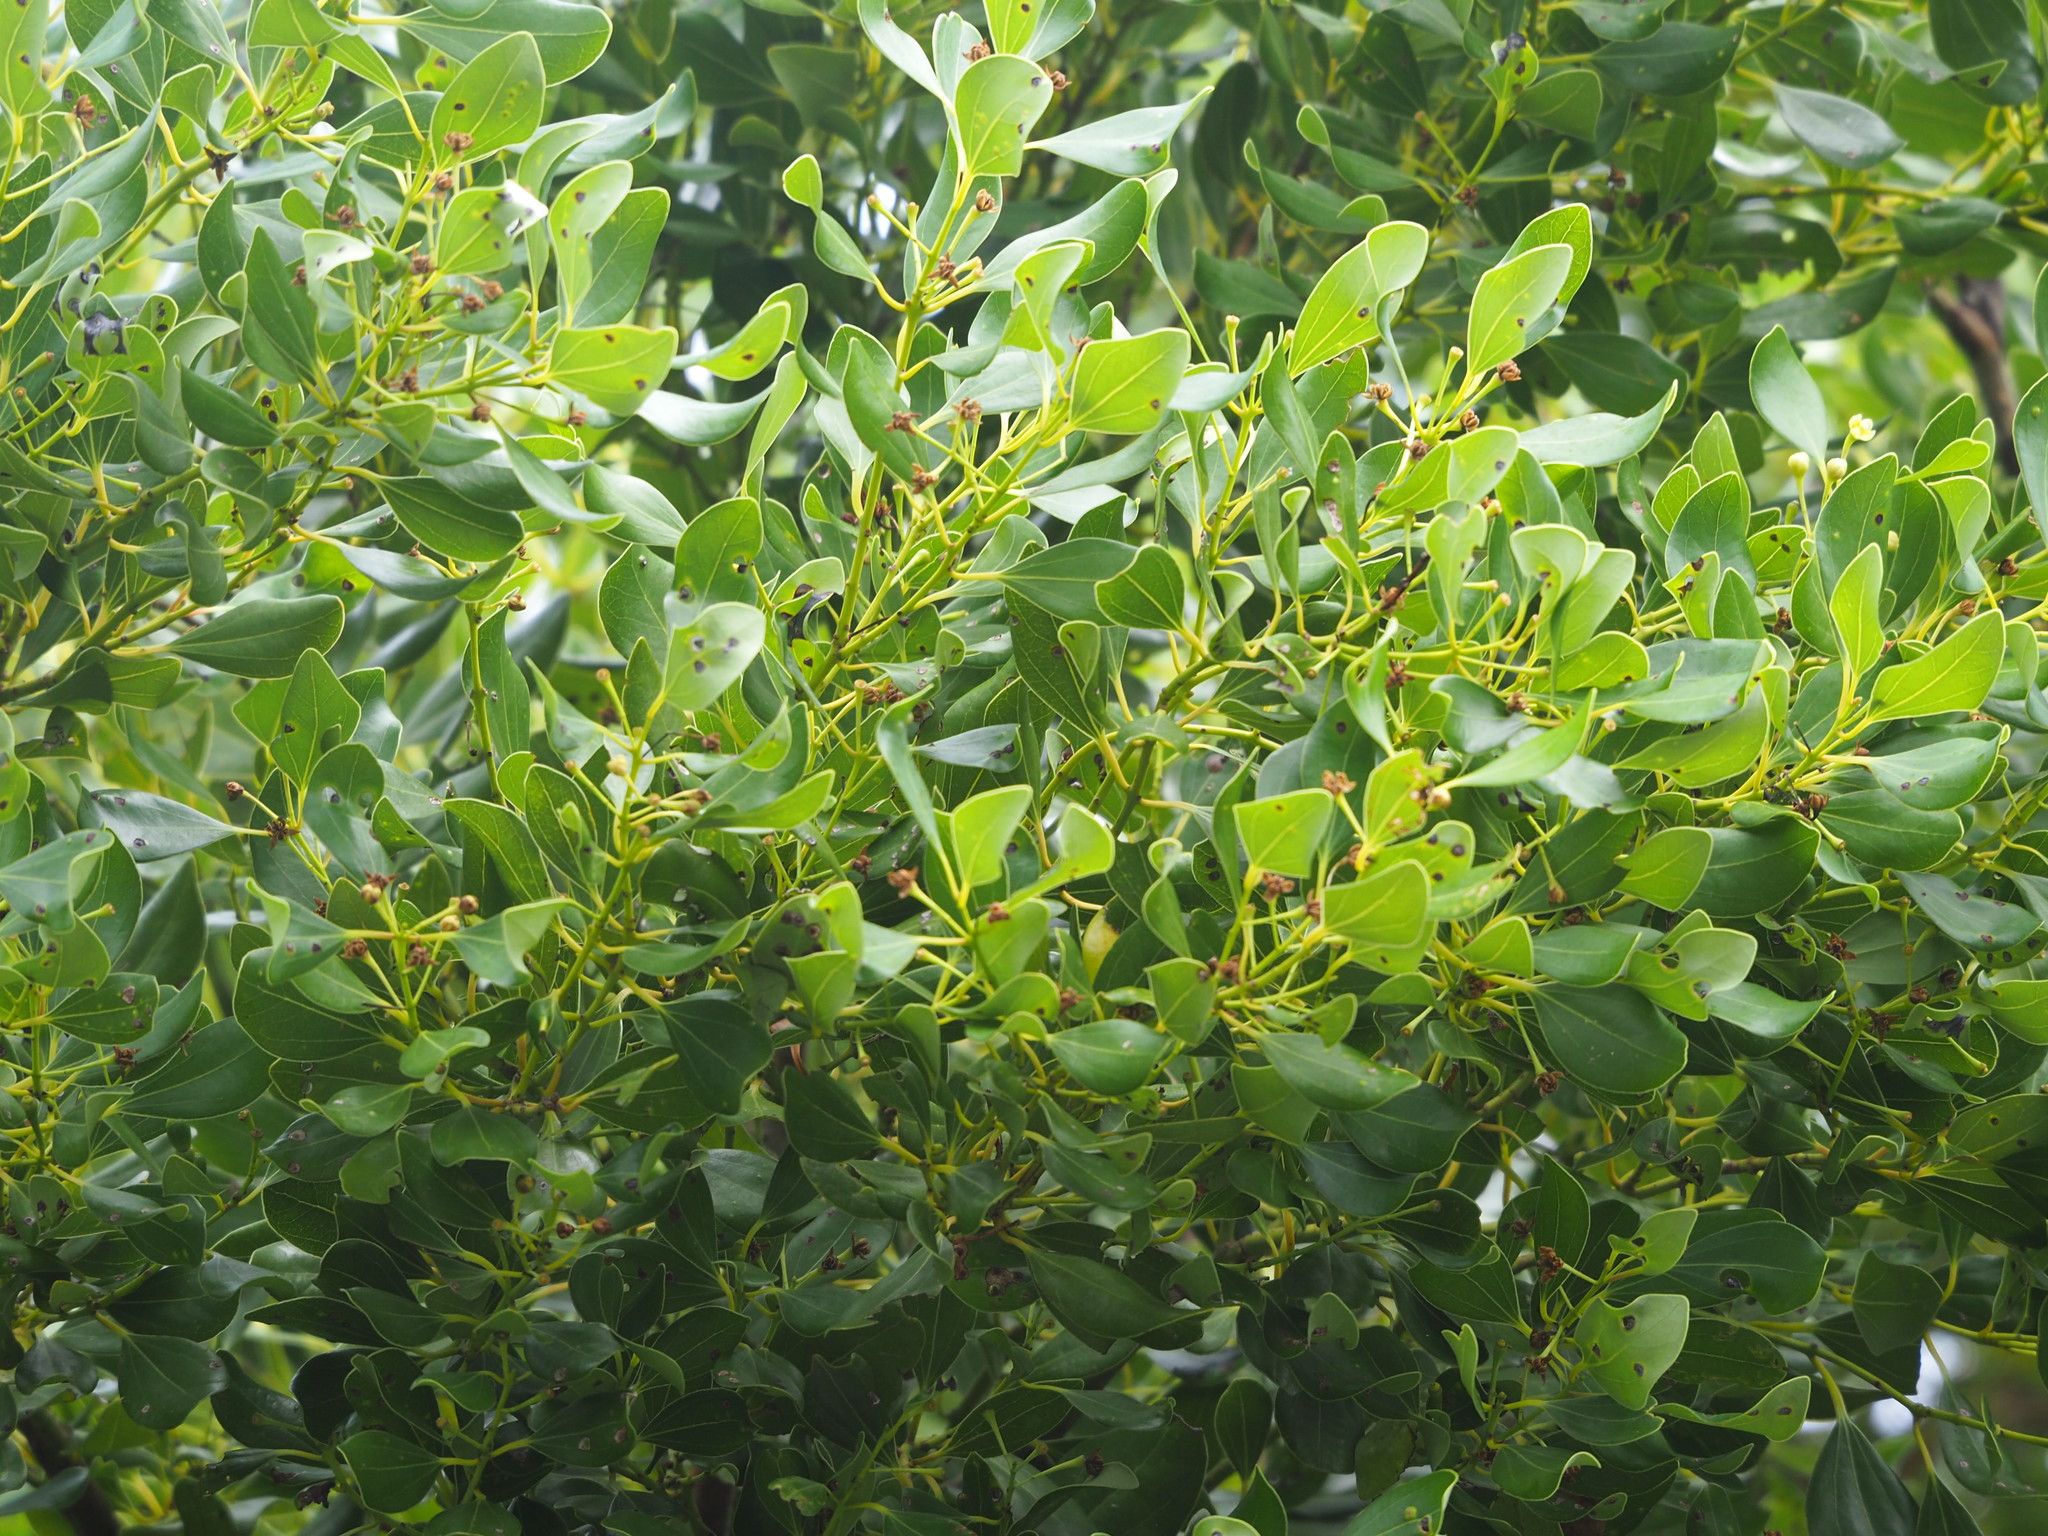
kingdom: Plantae
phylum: Tracheophyta
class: Magnoliopsida
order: Laurales
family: Lauraceae
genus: Cinnamomum
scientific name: Cinnamomum reticulatum
